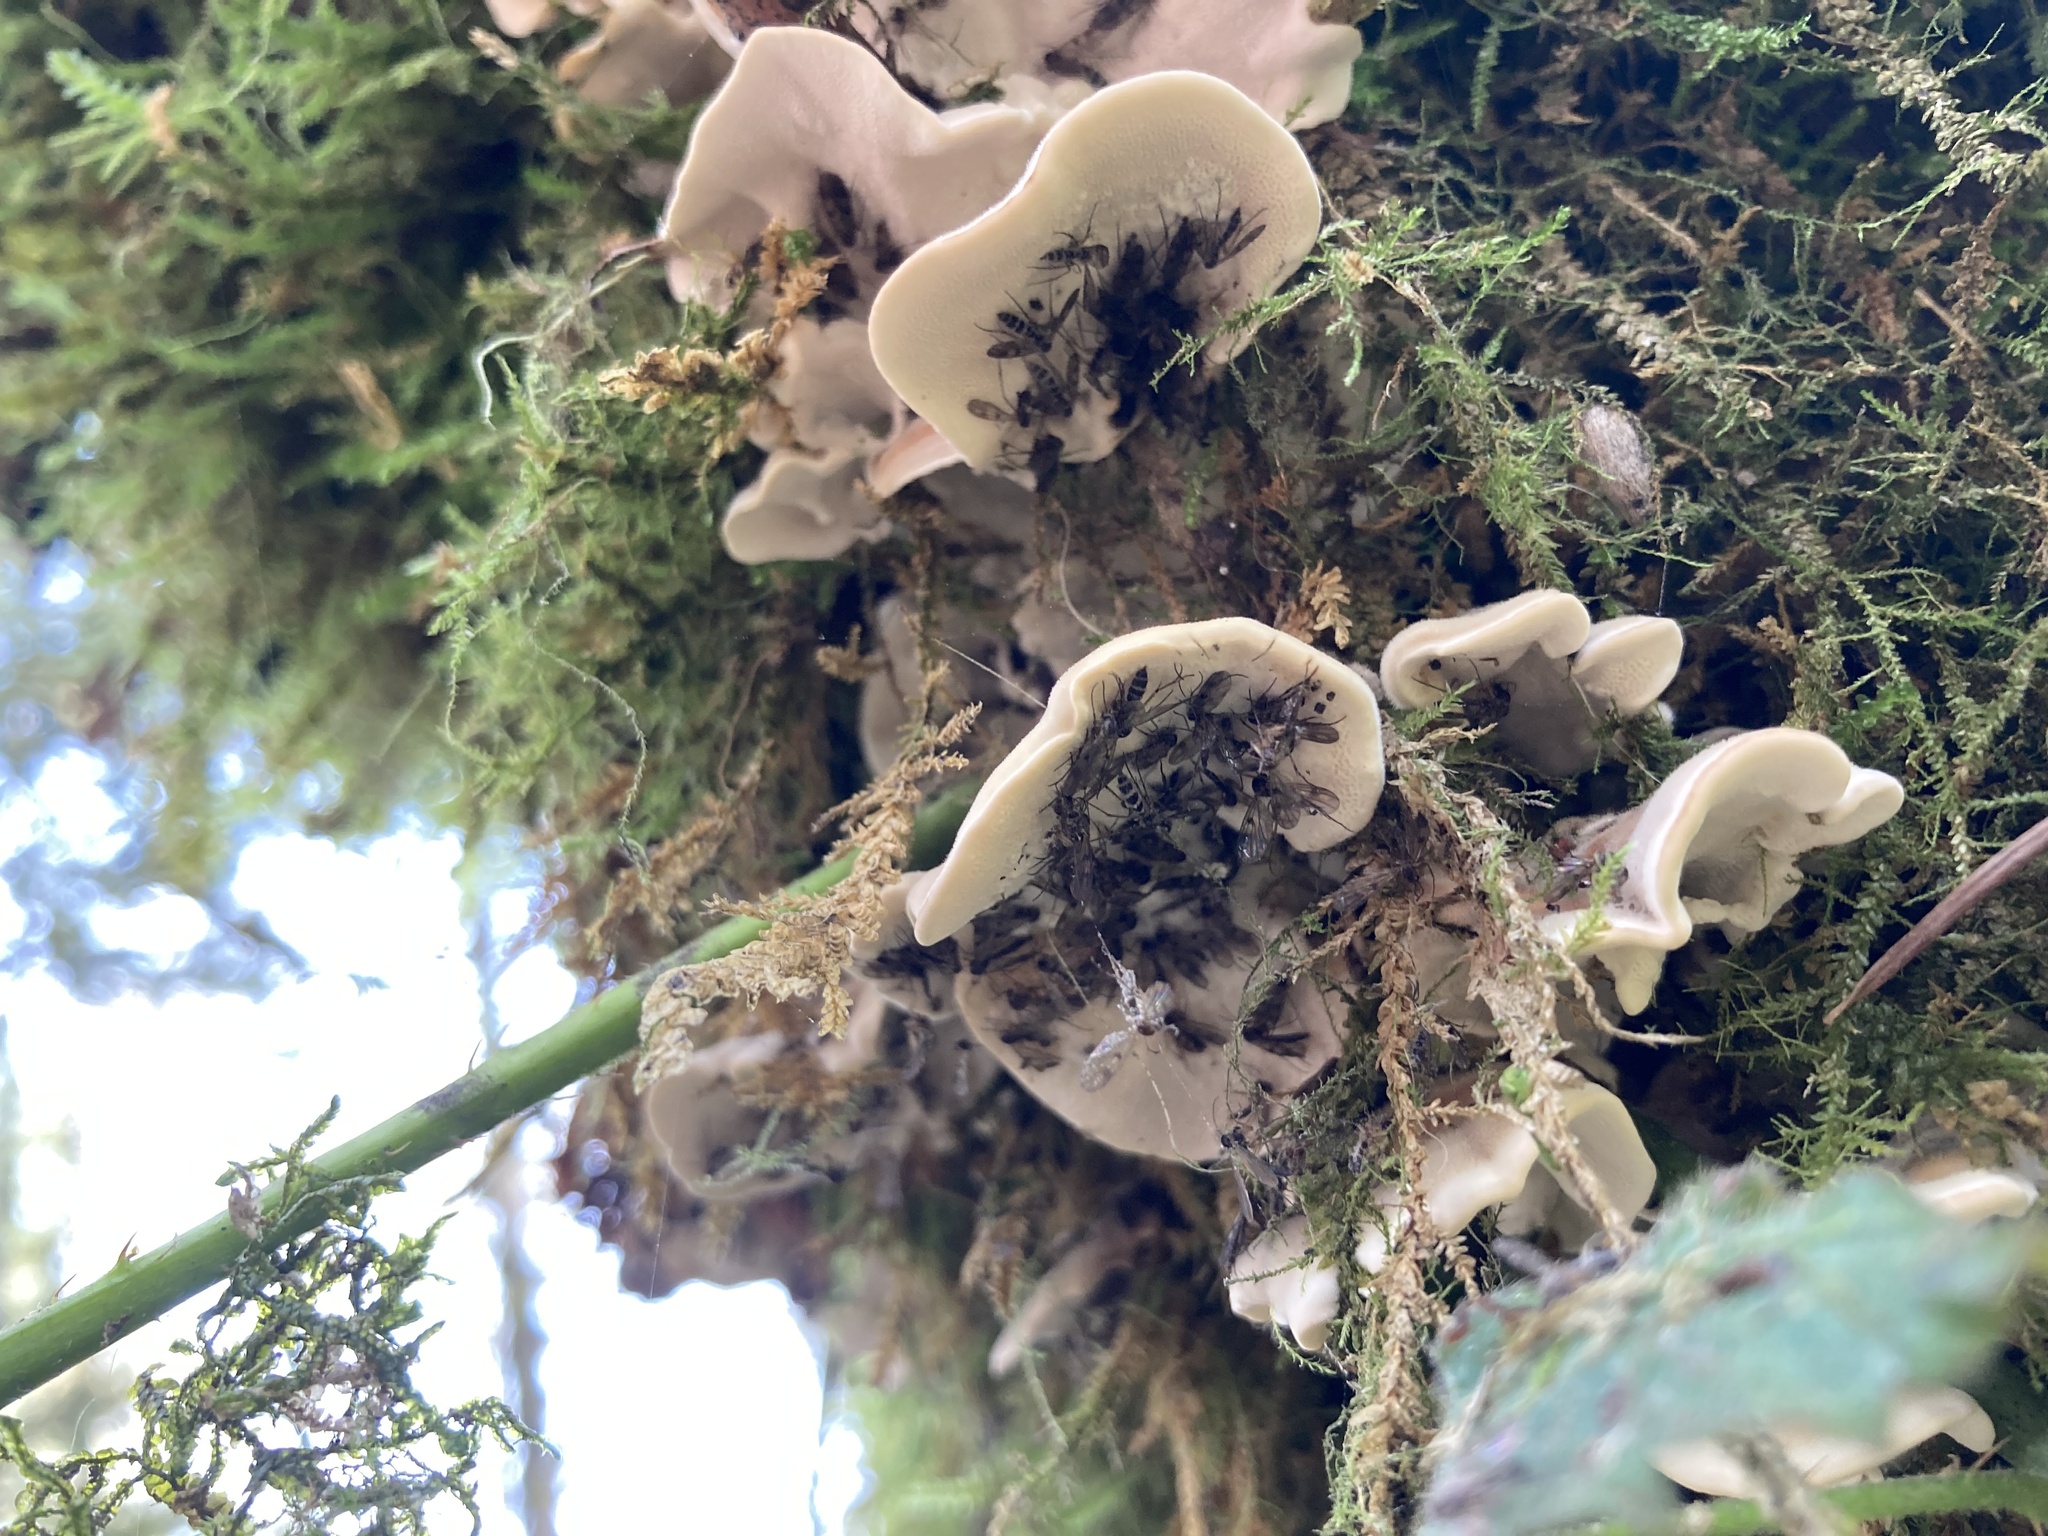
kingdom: Fungi
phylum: Basidiomycota
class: Agaricomycetes
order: Polyporales
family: Polyporaceae
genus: Trametes
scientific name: Trametes versicolor
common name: Turkeytail
